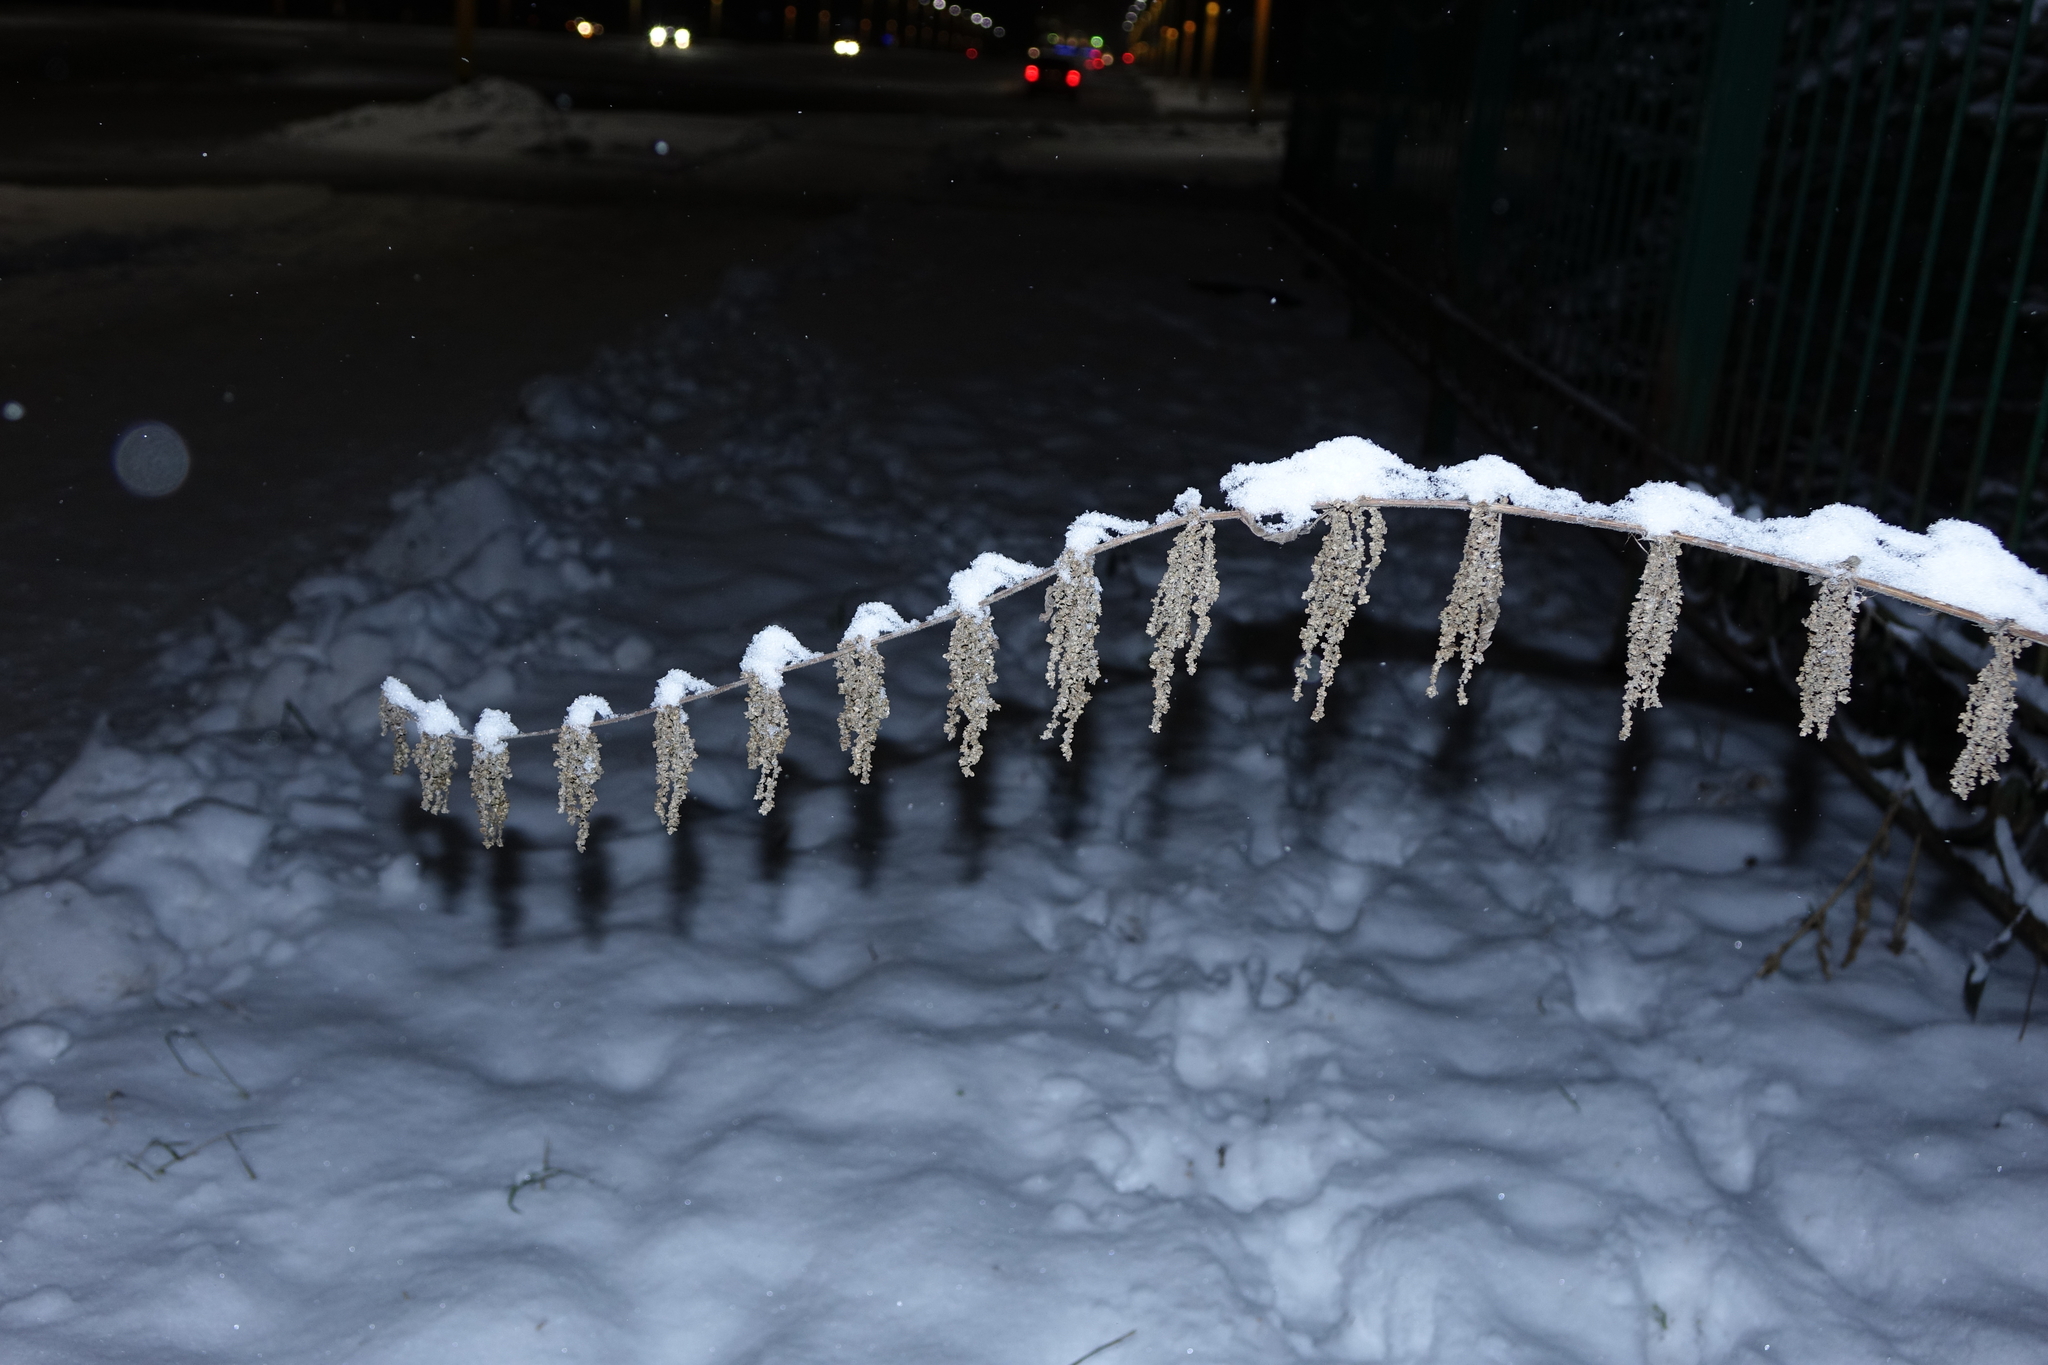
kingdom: Plantae
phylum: Tracheophyta
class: Magnoliopsida
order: Rosales
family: Urticaceae
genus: Urtica
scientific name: Urtica dioica
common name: Common nettle
